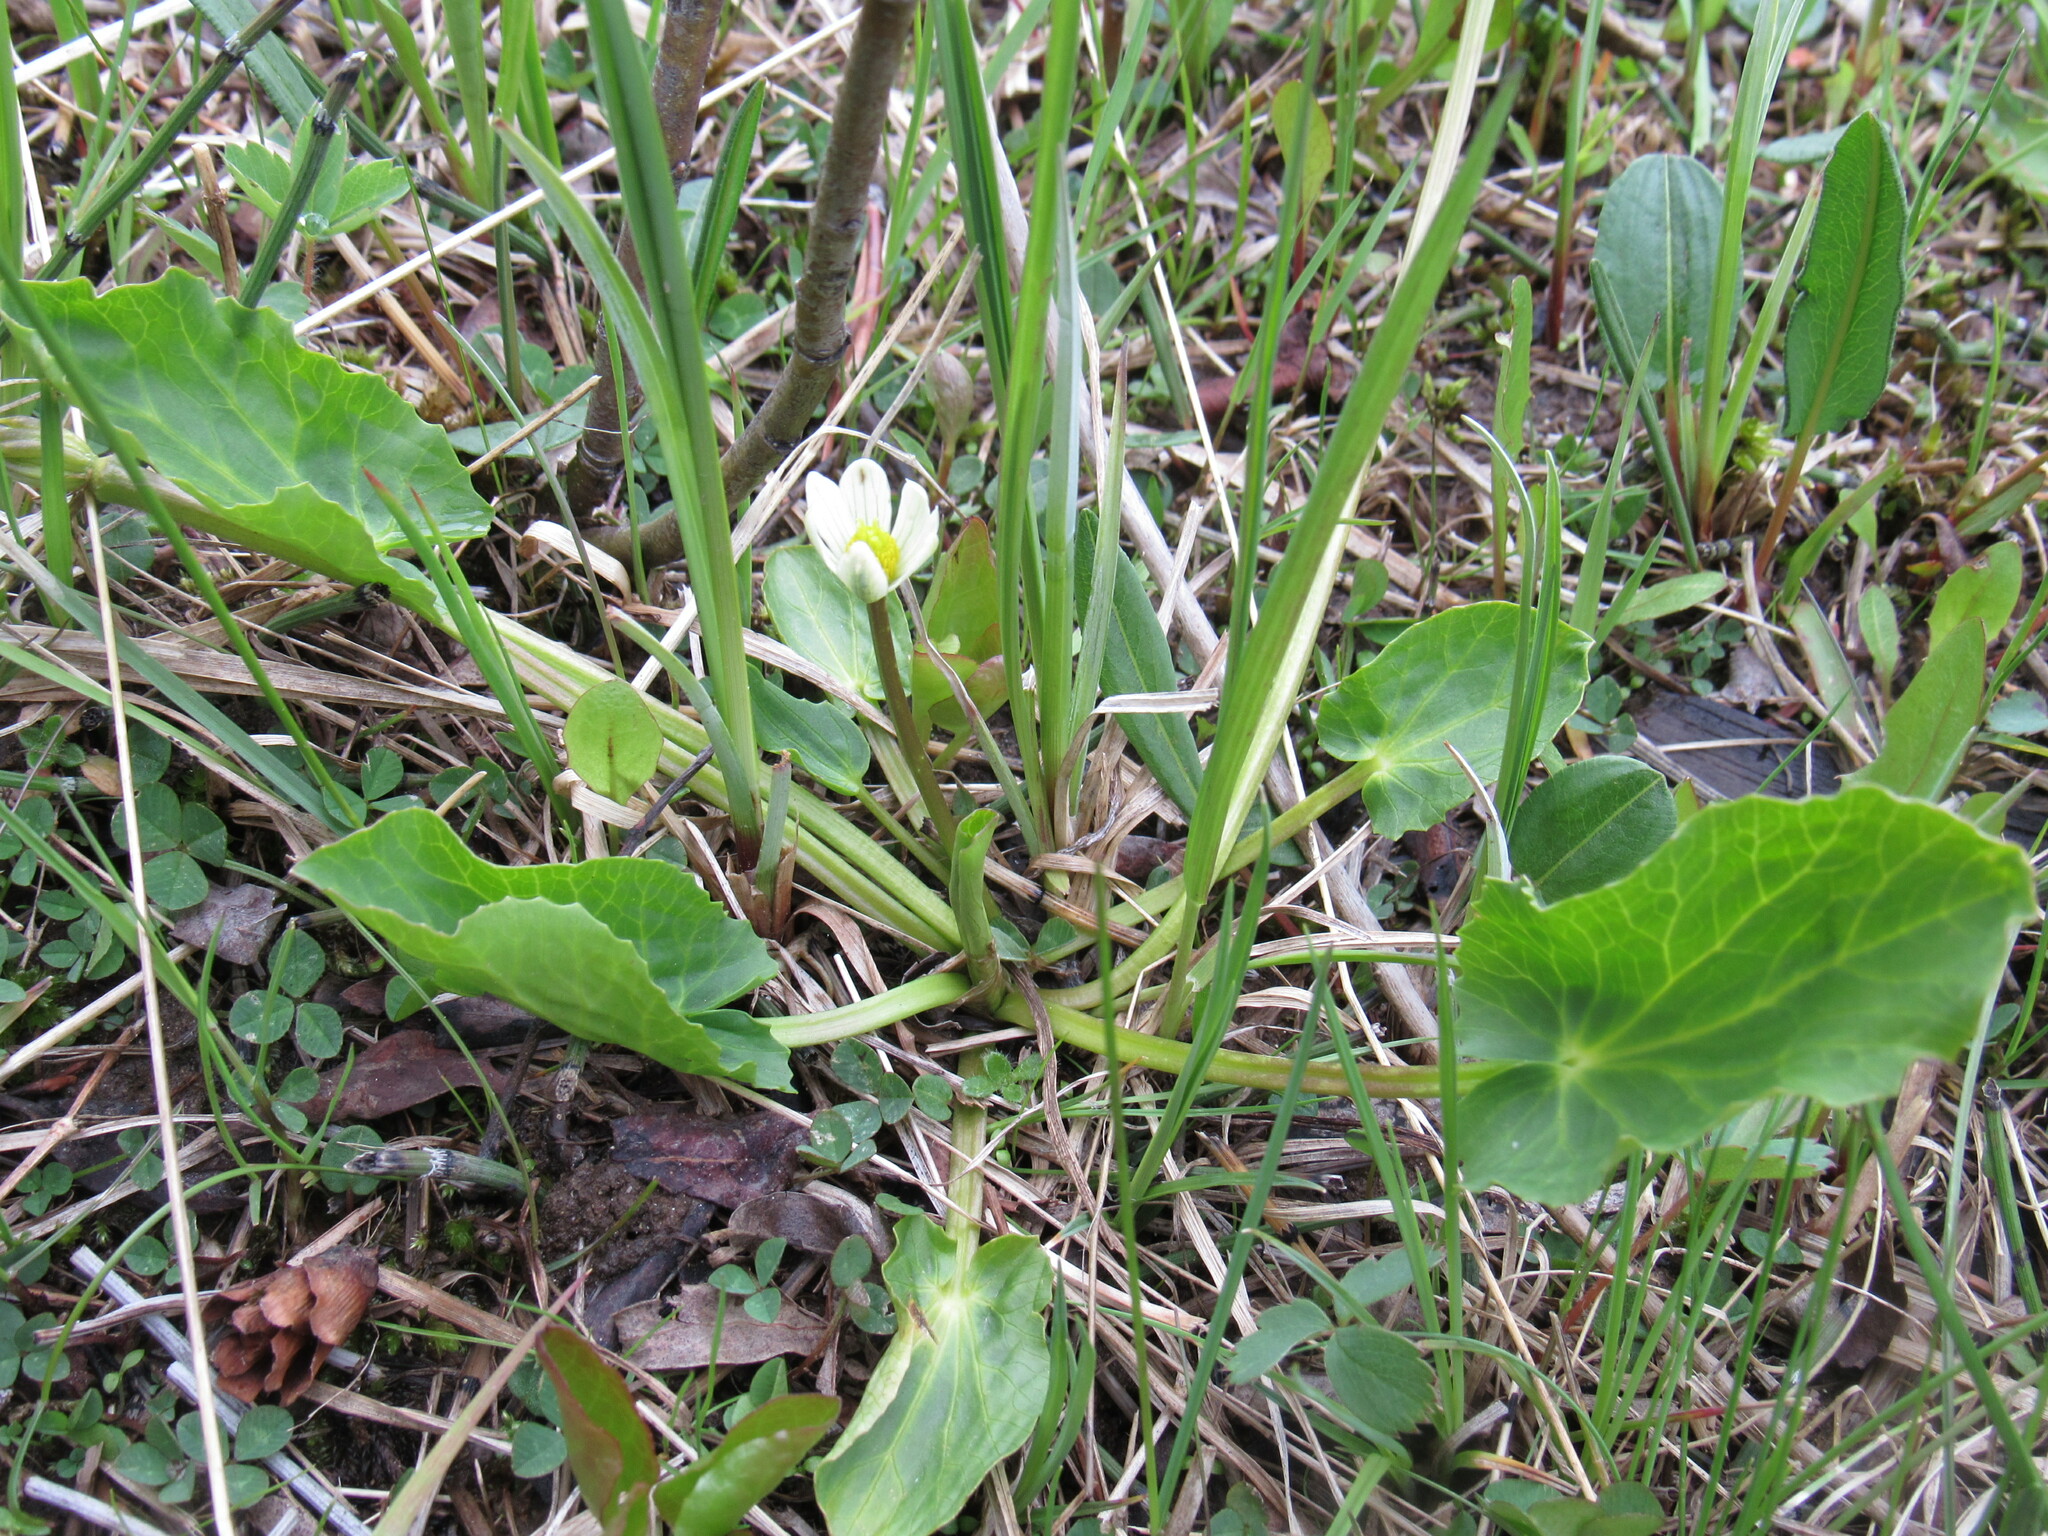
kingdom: Plantae
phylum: Tracheophyta
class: Magnoliopsida
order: Ranunculales
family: Ranunculaceae
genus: Caltha
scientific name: Caltha leptosepala
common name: Elkslip
